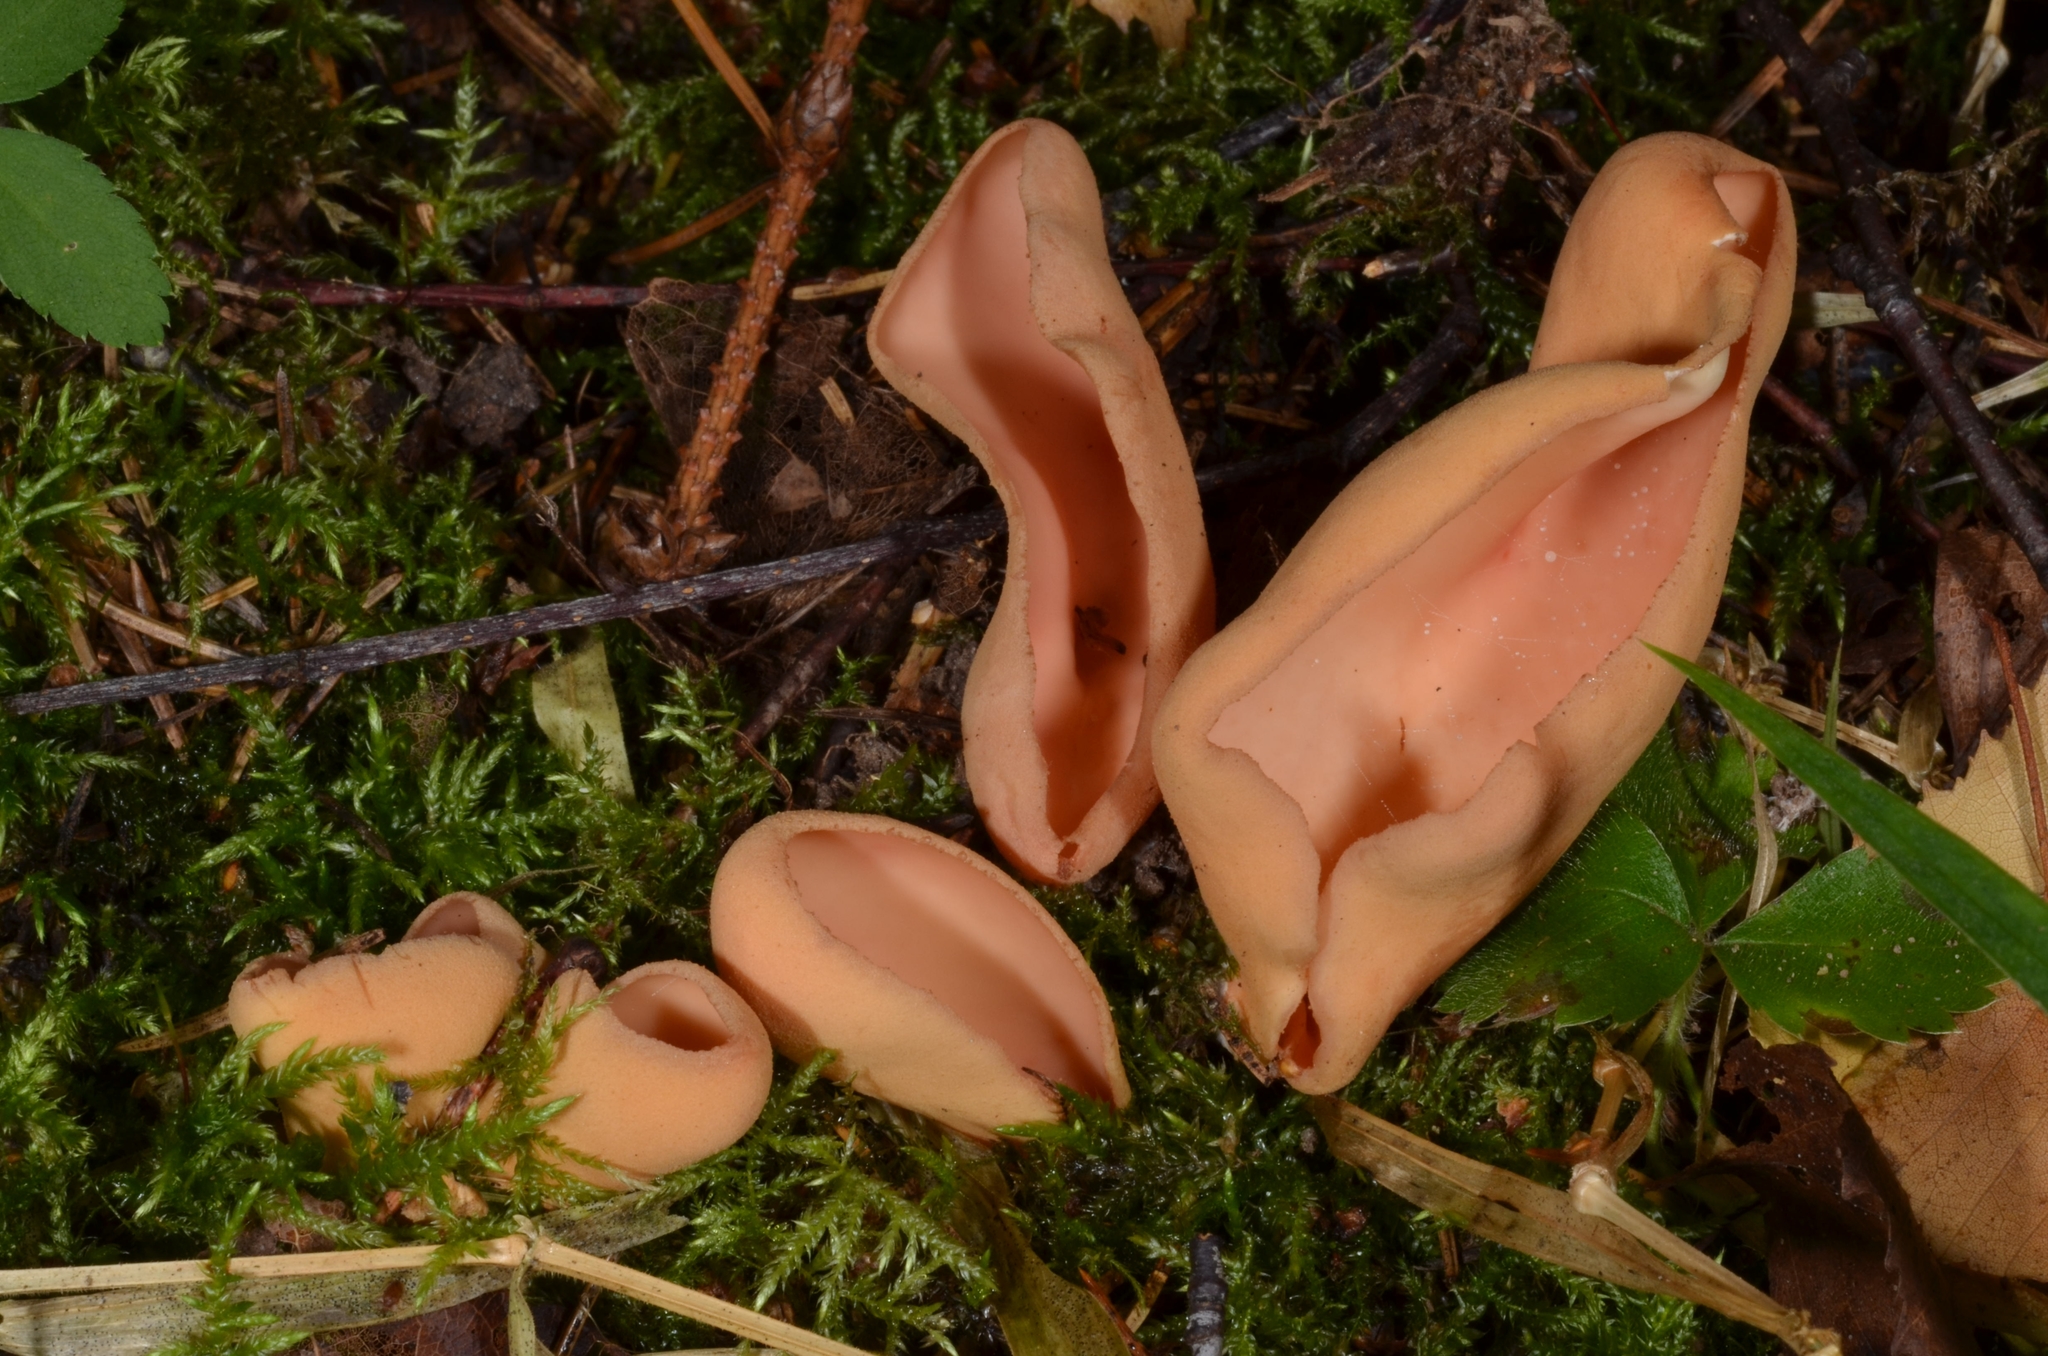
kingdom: Fungi
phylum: Ascomycota
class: Pezizomycetes
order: Pezizales
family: Otideaceae
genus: Otidea
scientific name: Otidea onotica
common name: Hare's ear
